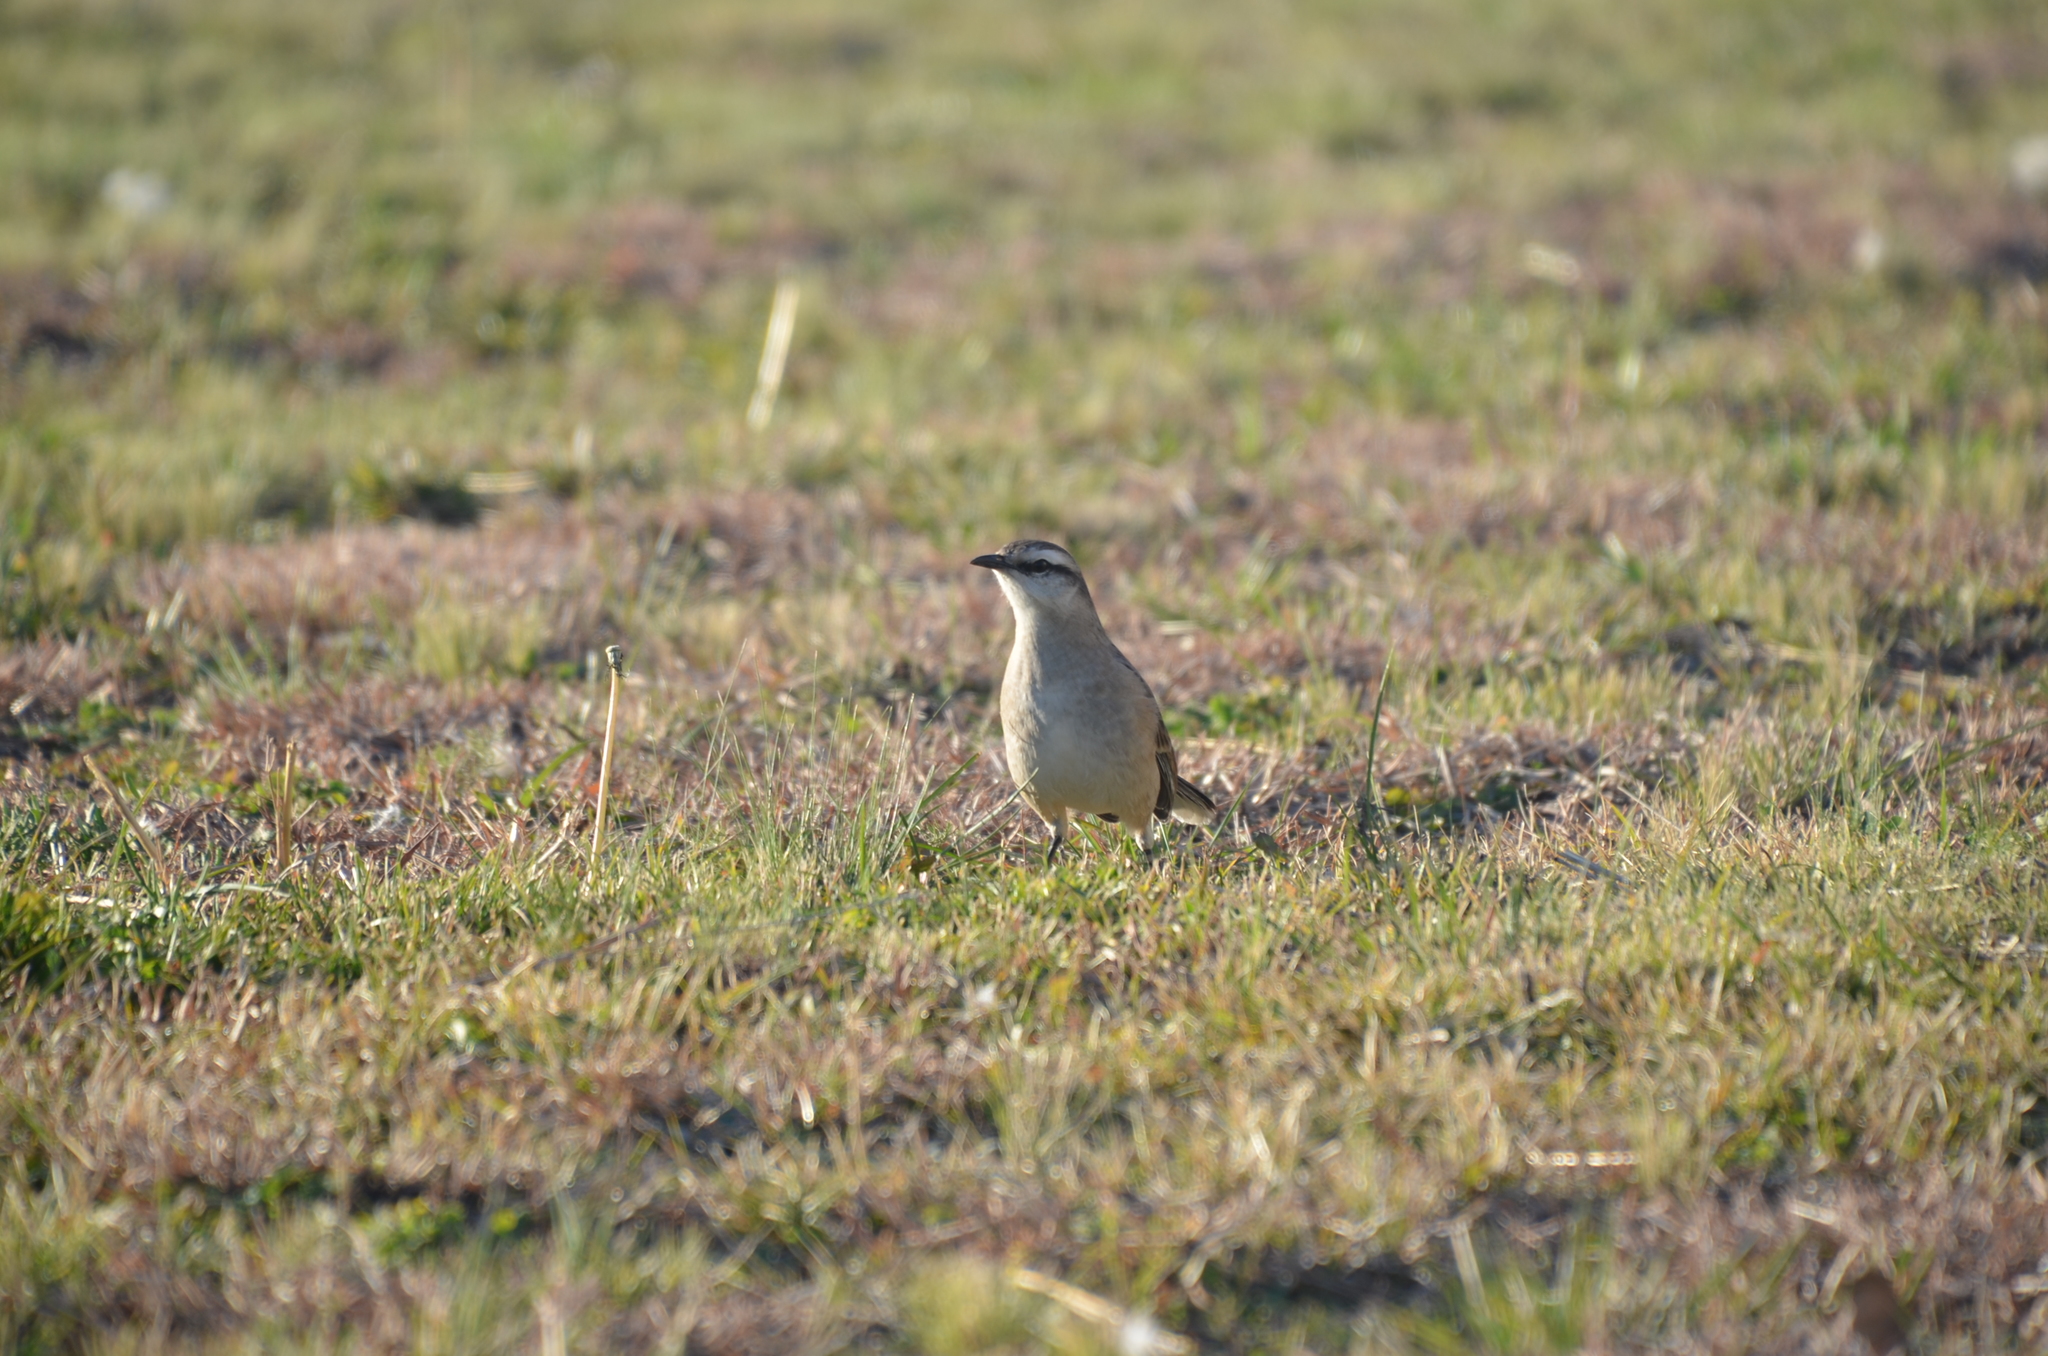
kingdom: Animalia
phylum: Chordata
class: Aves
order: Passeriformes
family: Mimidae
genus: Mimus
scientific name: Mimus saturninus
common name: Chalk-browed mockingbird
